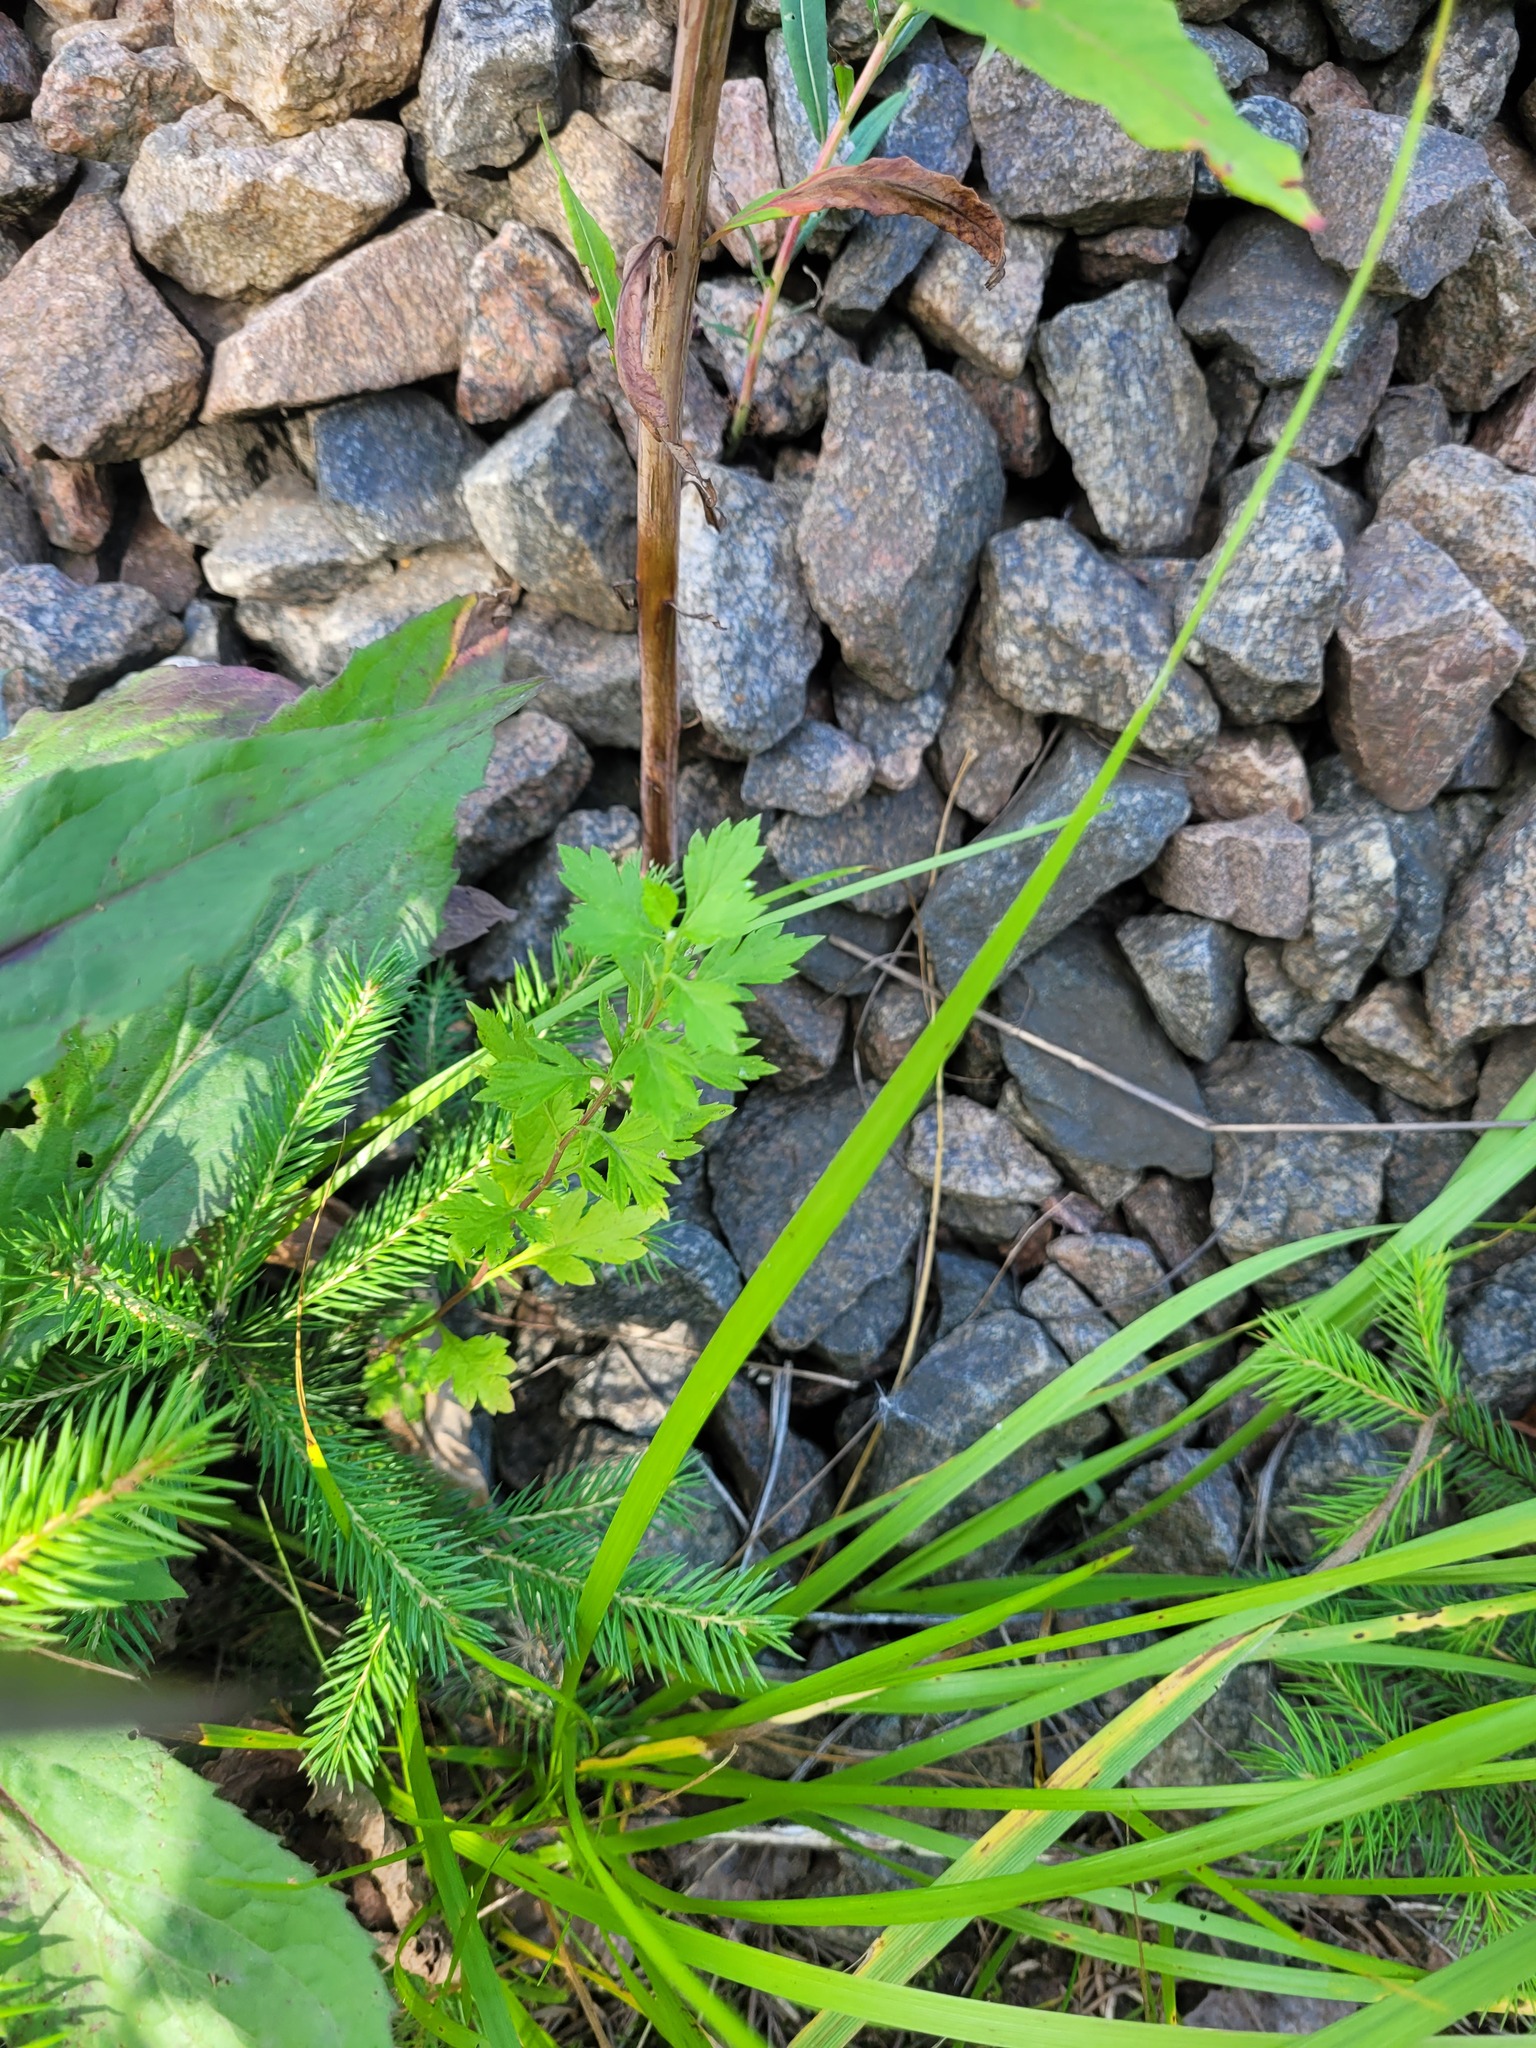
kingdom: Plantae
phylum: Tracheophyta
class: Magnoliopsida
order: Asterales
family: Asteraceae
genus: Artemisia
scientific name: Artemisia vulgaris
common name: Mugwort
